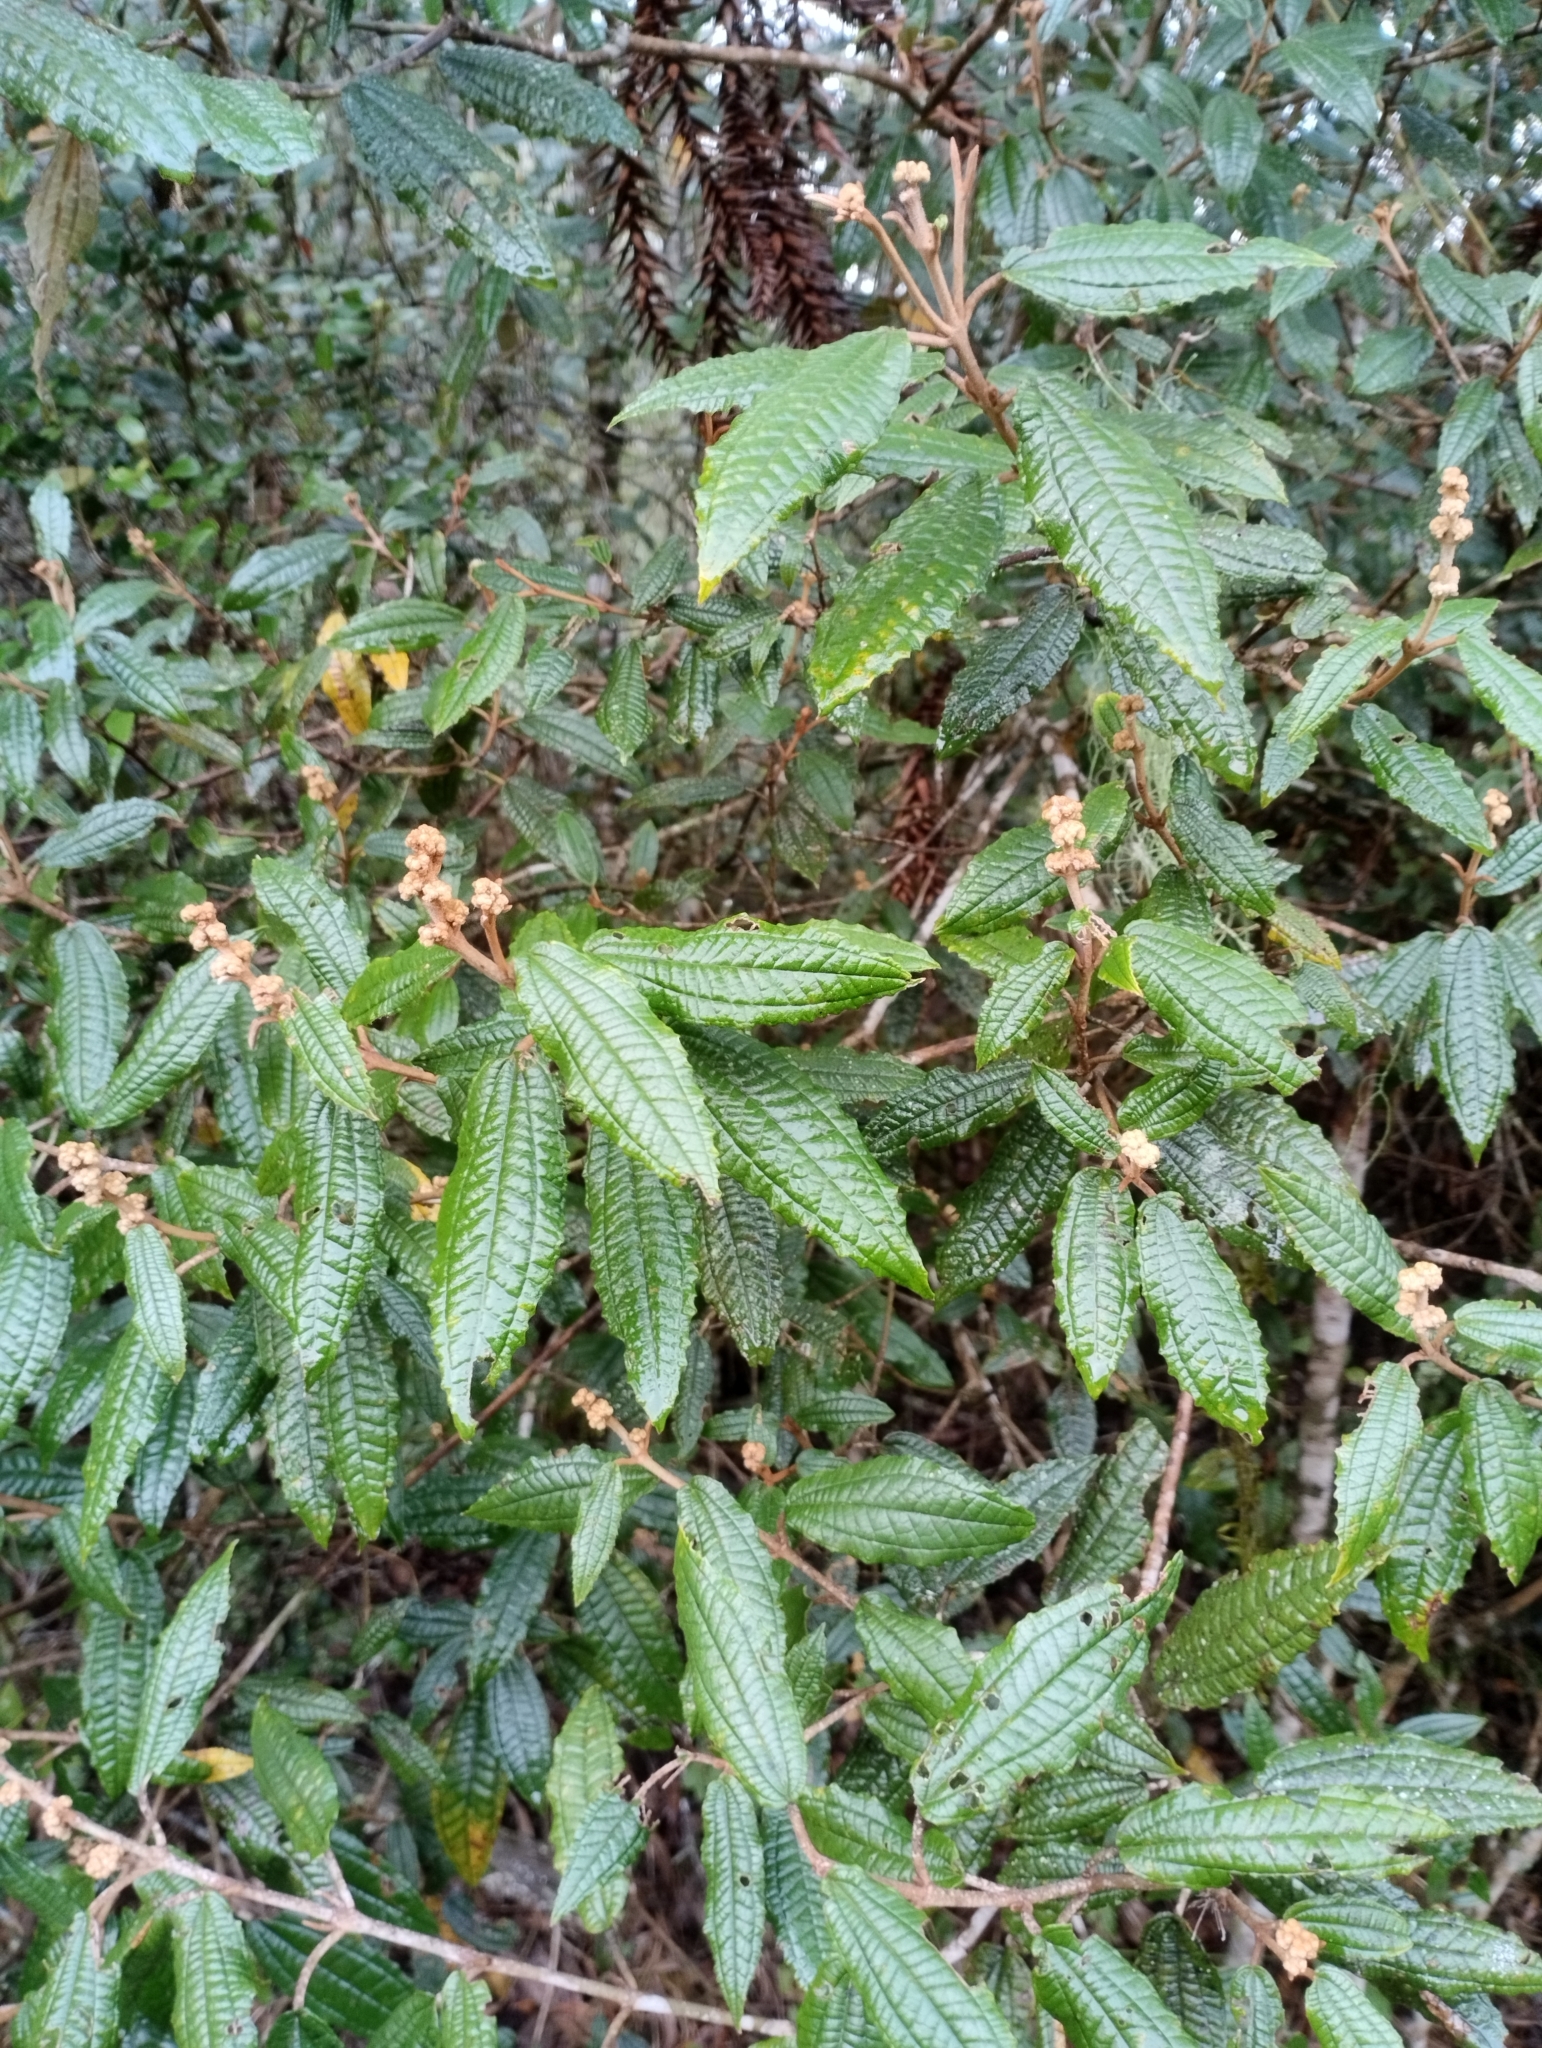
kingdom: Plantae
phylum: Tracheophyta
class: Magnoliopsida
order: Myrtales
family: Melastomataceae
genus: Miconia
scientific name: Miconia hyemalis
